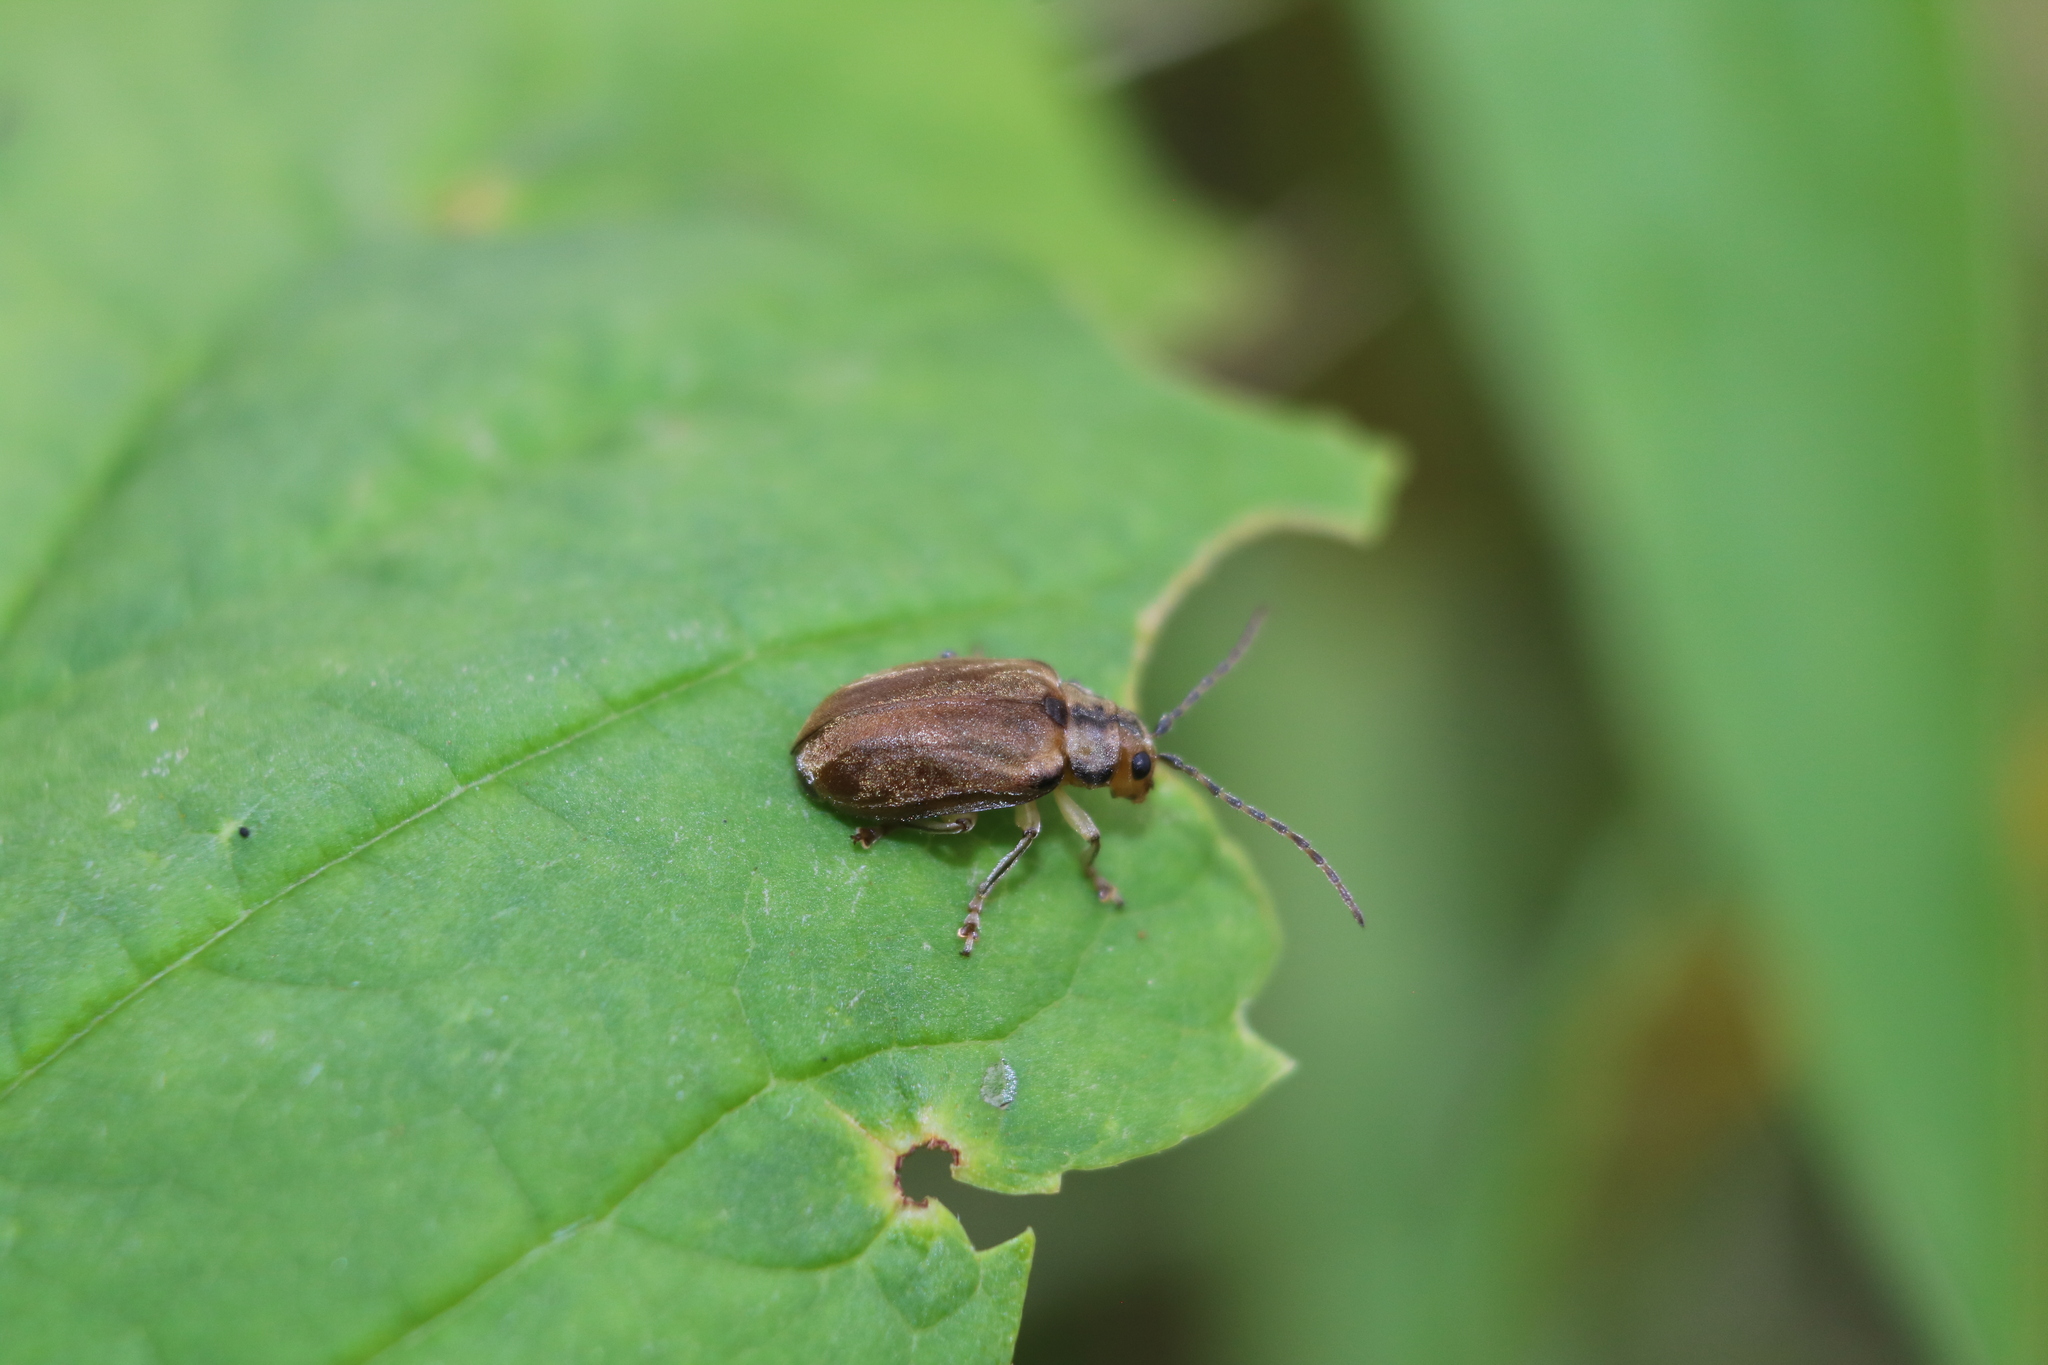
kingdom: Animalia
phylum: Arthropoda
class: Insecta
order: Coleoptera
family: Chrysomelidae
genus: Pyrrhalta
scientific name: Pyrrhalta viburni
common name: Guelder-rose leaf beetle
